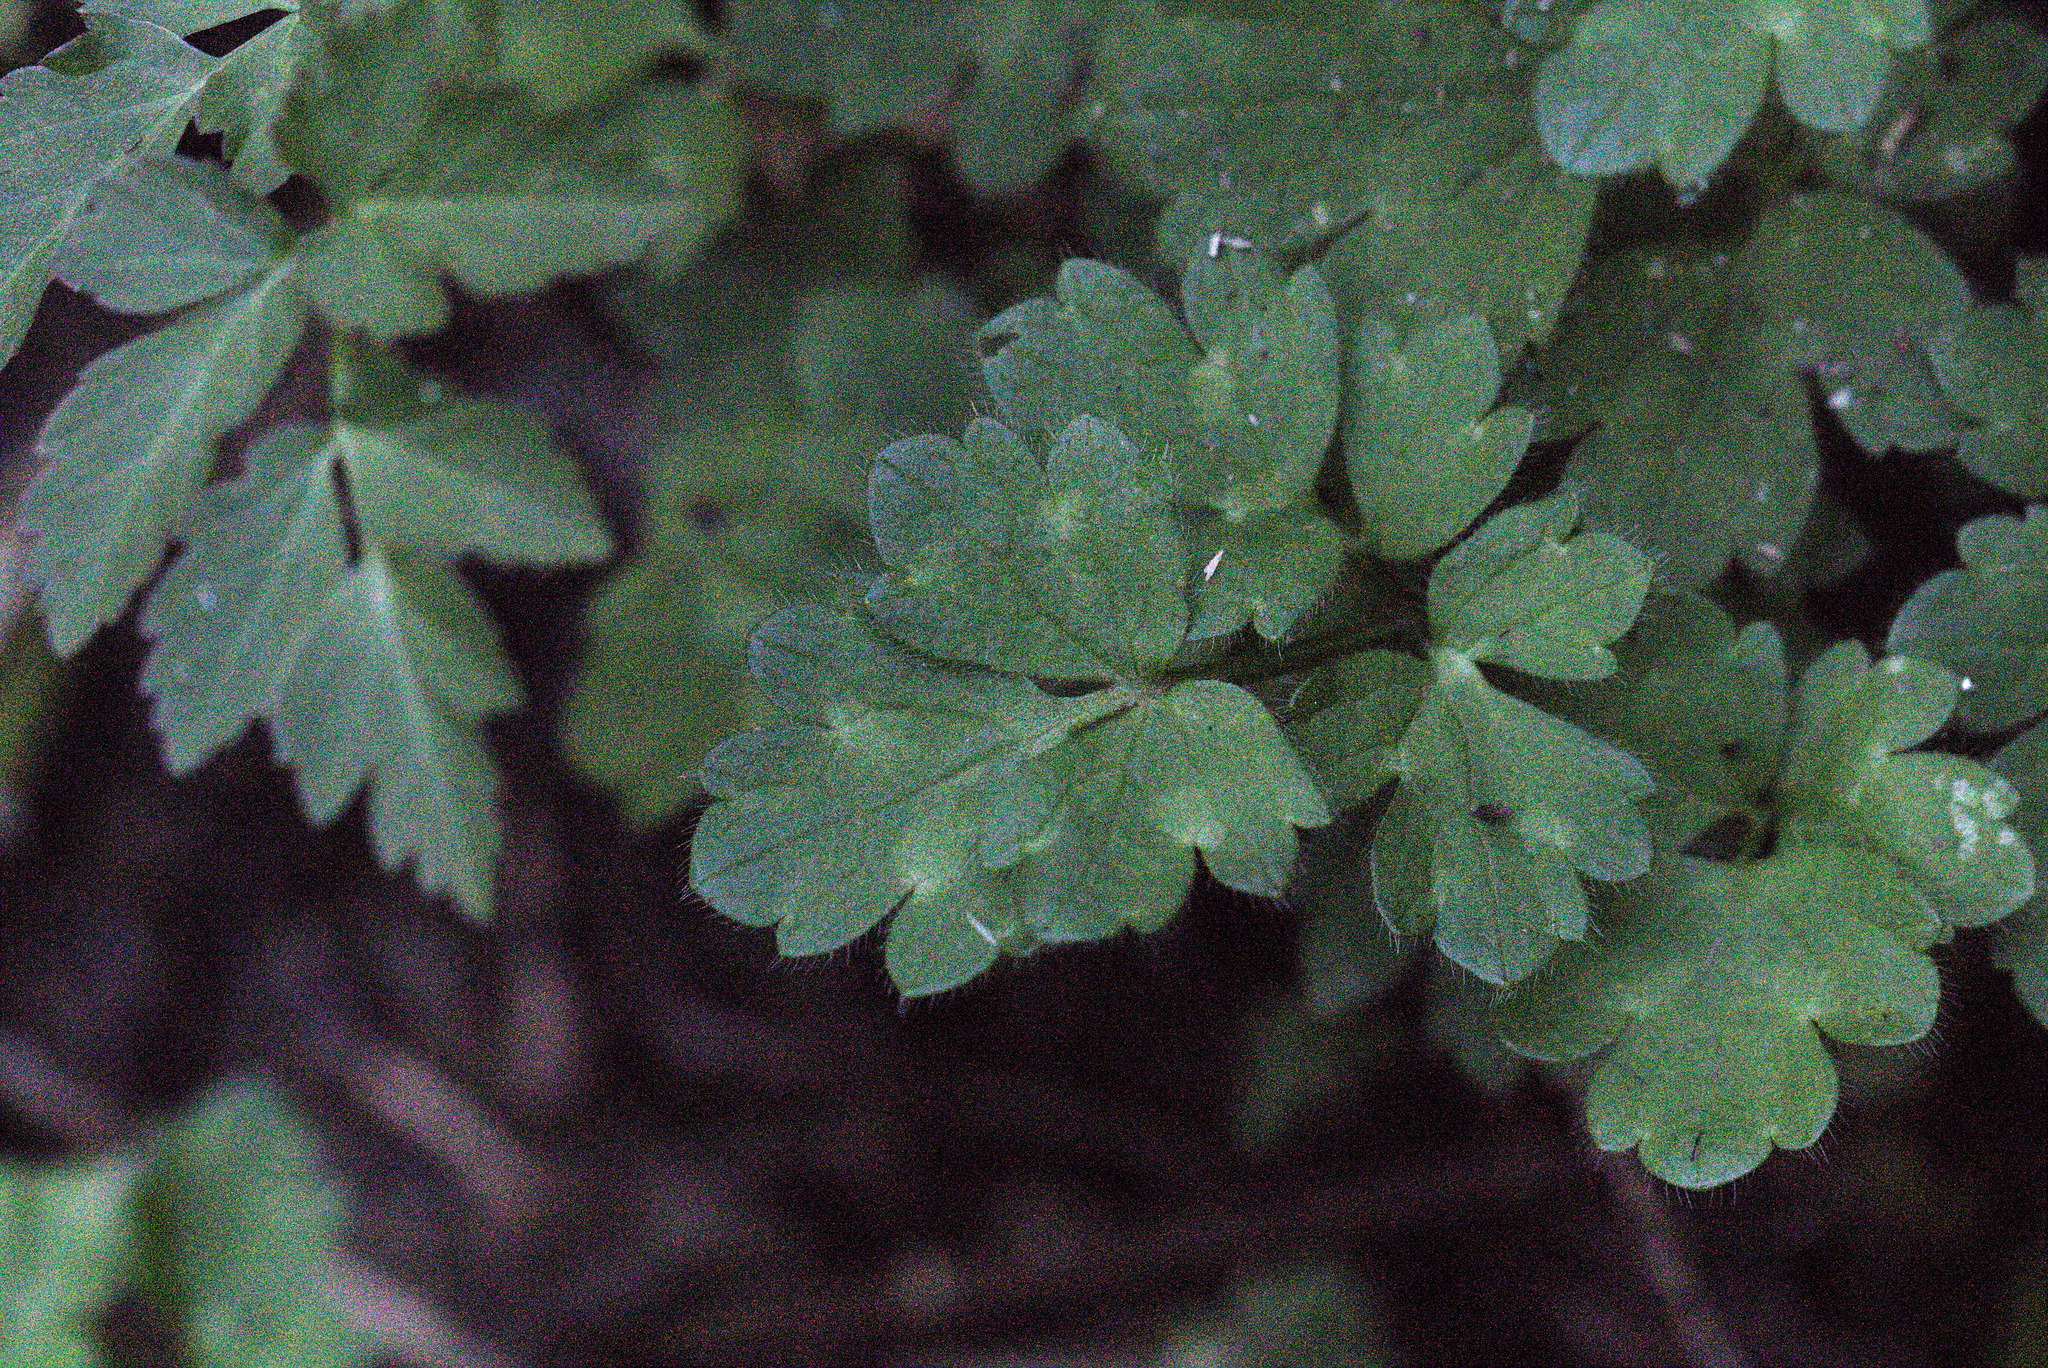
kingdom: Plantae
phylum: Tracheophyta
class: Magnoliopsida
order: Ranunculales
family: Ranunculaceae
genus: Ranunculus
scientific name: Ranunculus repens
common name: Creeping buttercup
